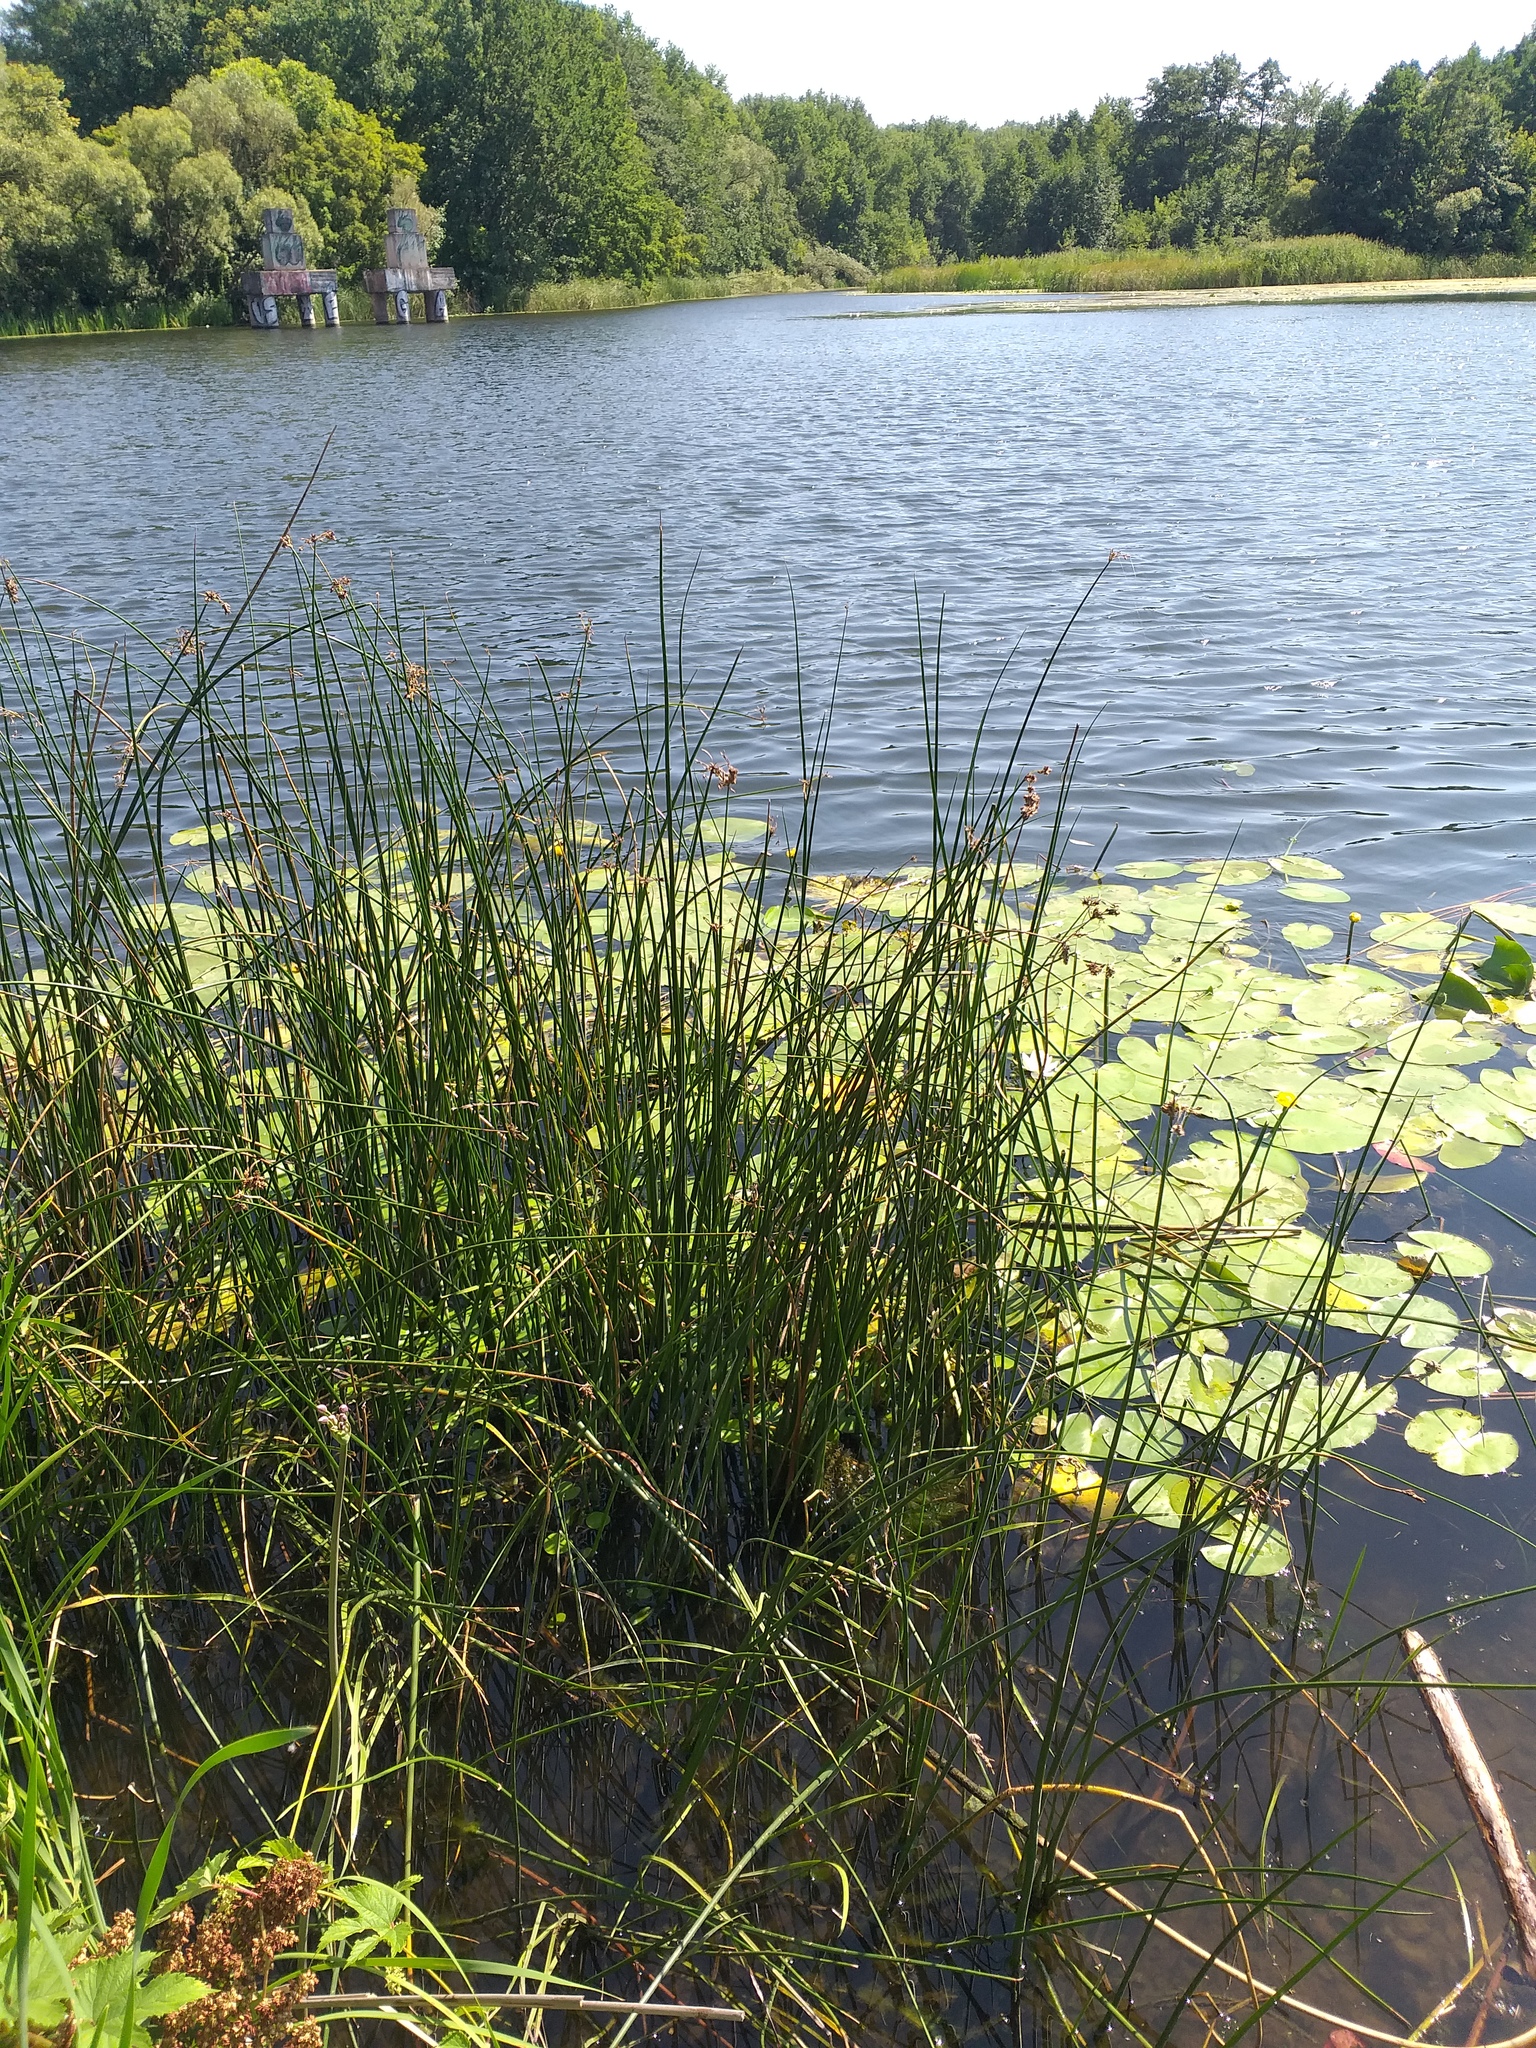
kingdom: Plantae
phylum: Tracheophyta
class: Liliopsida
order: Poales
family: Cyperaceae
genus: Schoenoplectus
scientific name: Schoenoplectus lacustris
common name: Common club-rush
